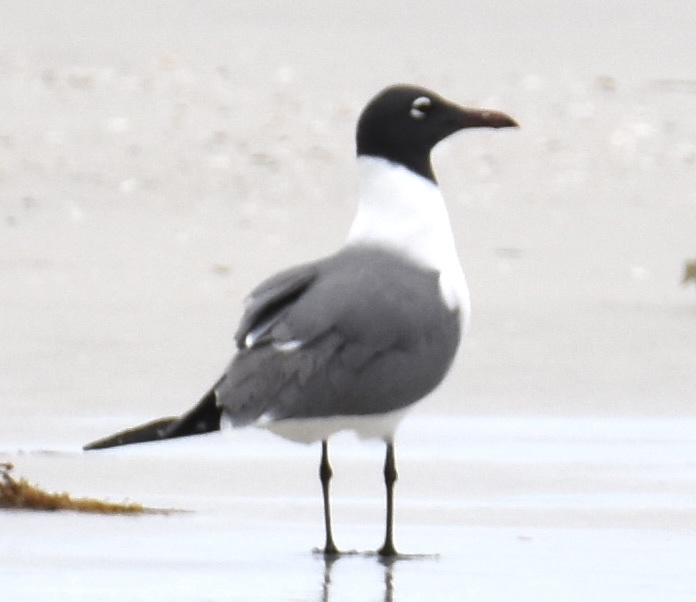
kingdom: Animalia
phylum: Chordata
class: Aves
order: Charadriiformes
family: Laridae
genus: Leucophaeus
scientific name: Leucophaeus atricilla
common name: Laughing gull
